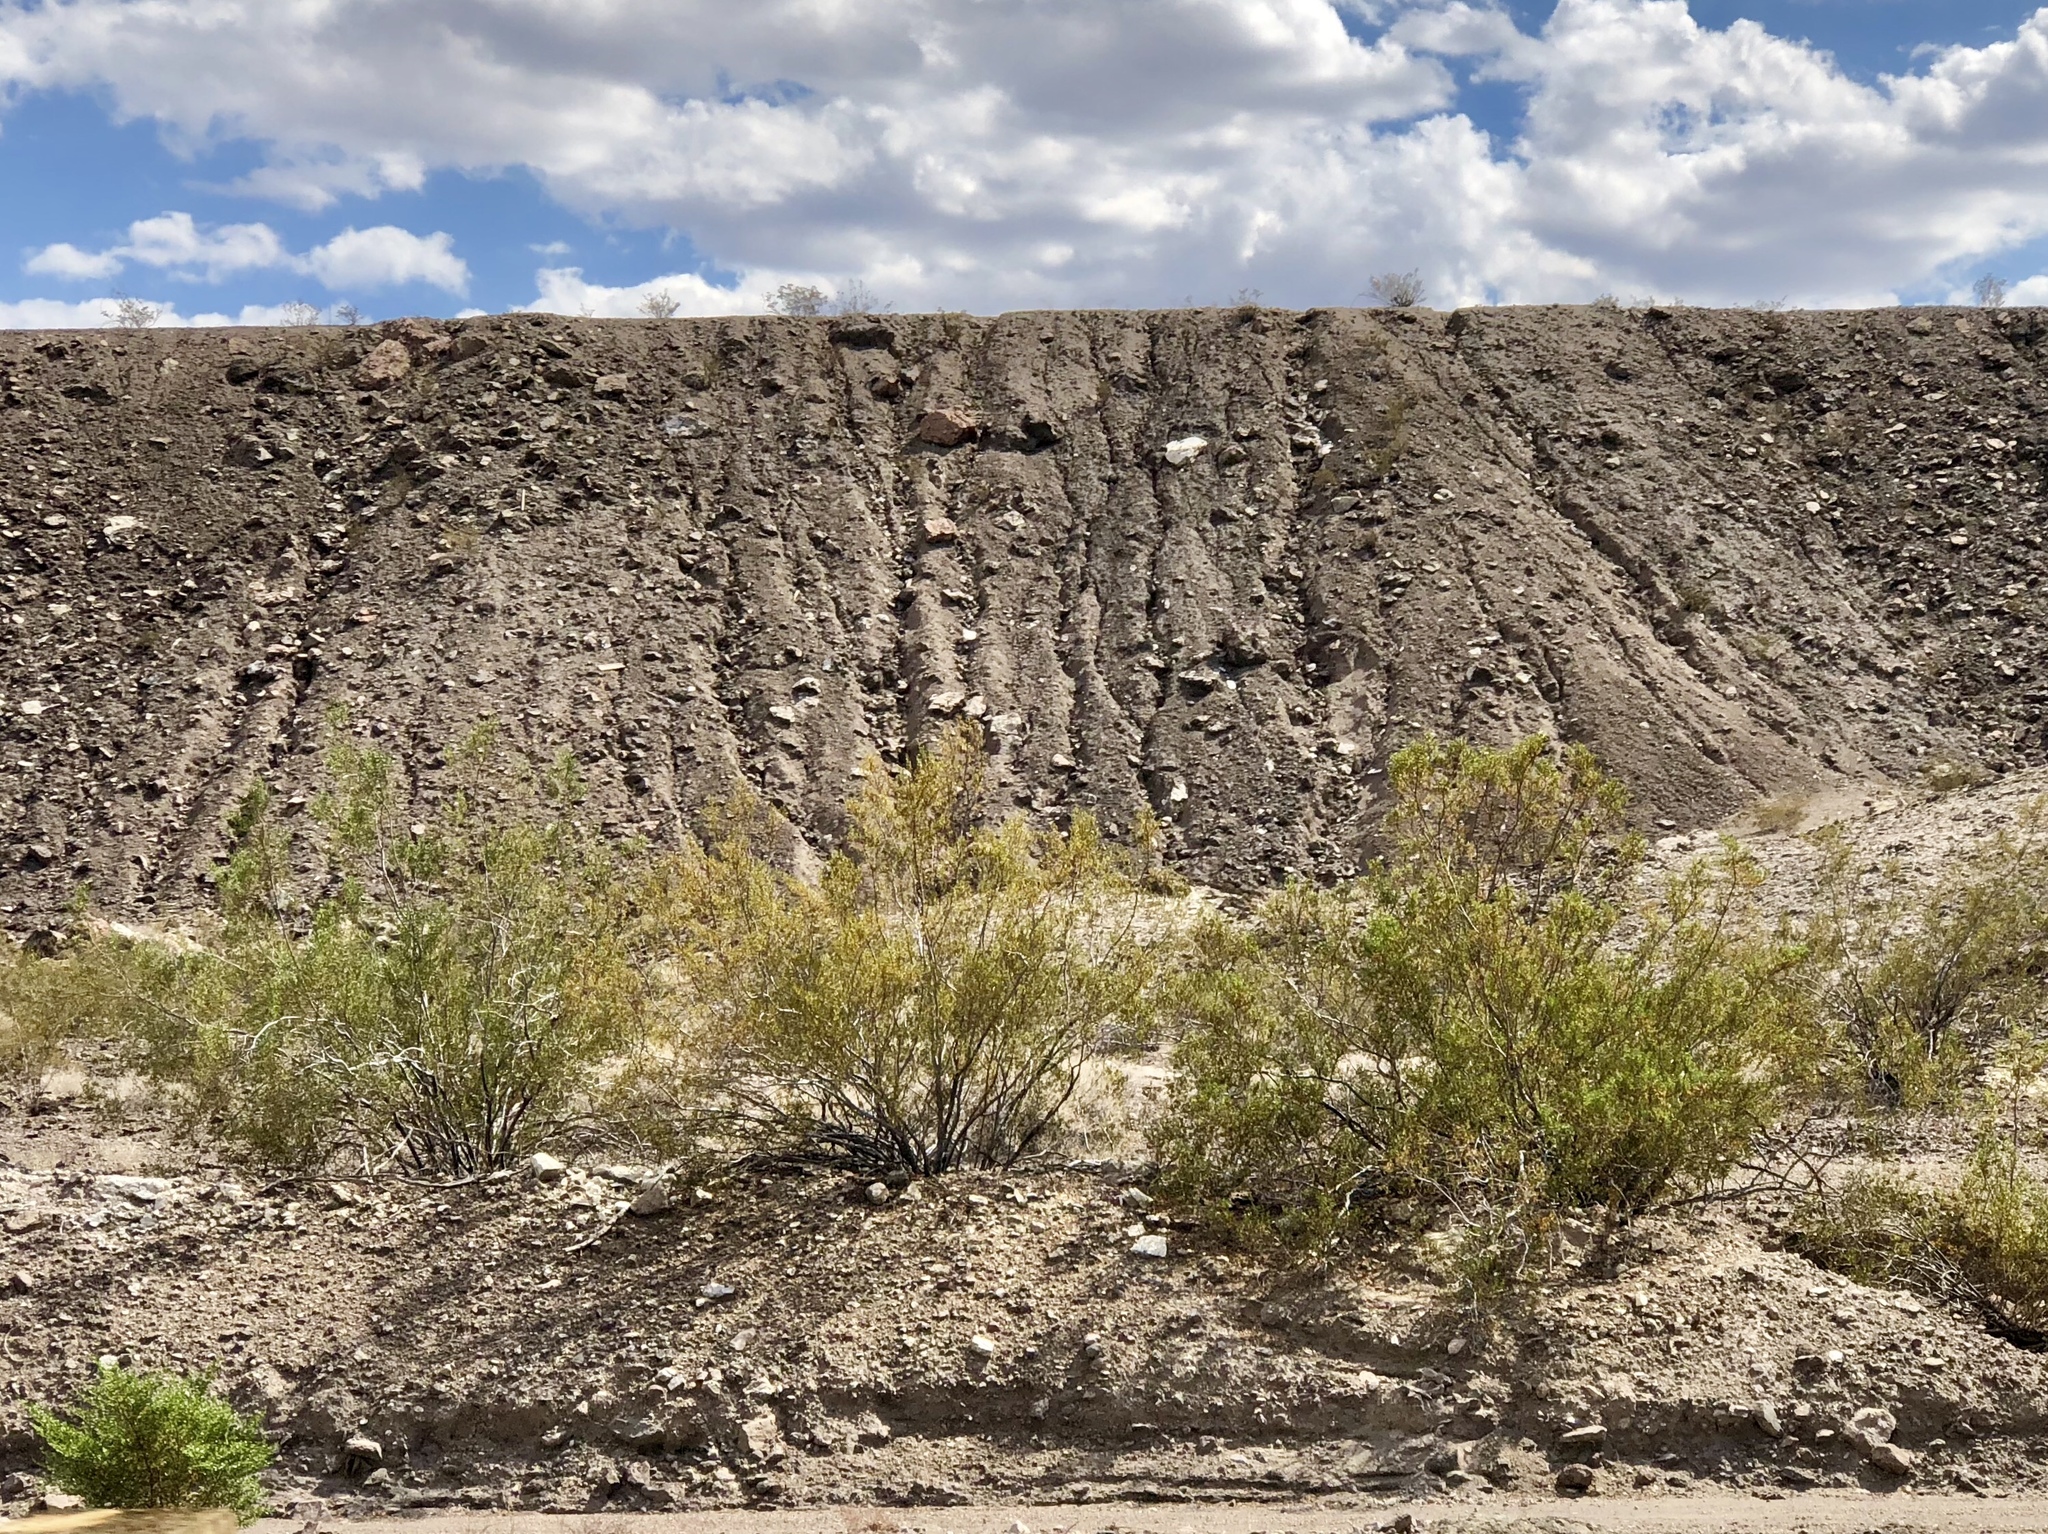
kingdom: Plantae
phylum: Tracheophyta
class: Magnoliopsida
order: Zygophyllales
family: Zygophyllaceae
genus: Larrea
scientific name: Larrea tridentata
